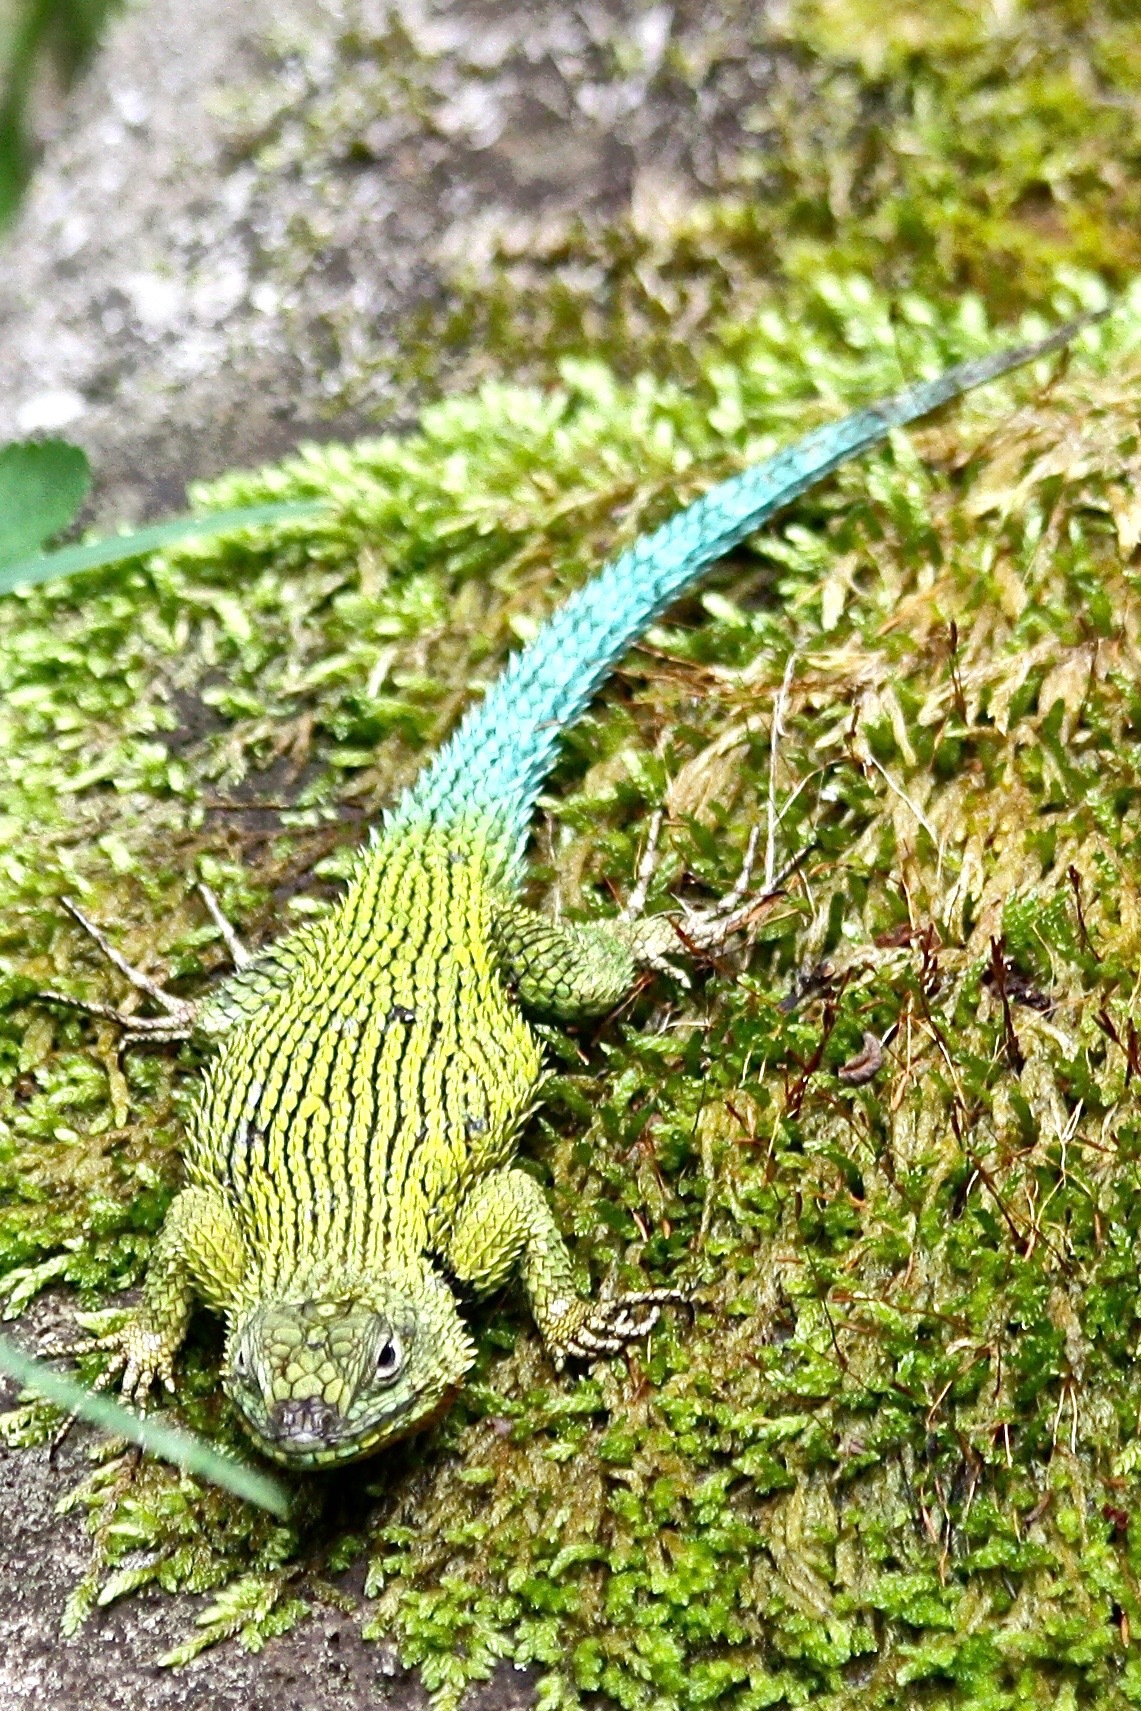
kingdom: Animalia
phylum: Chordata
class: Squamata
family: Phrynosomatidae
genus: Sceloporus
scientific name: Sceloporus malachiticus
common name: Green spiny lizard
